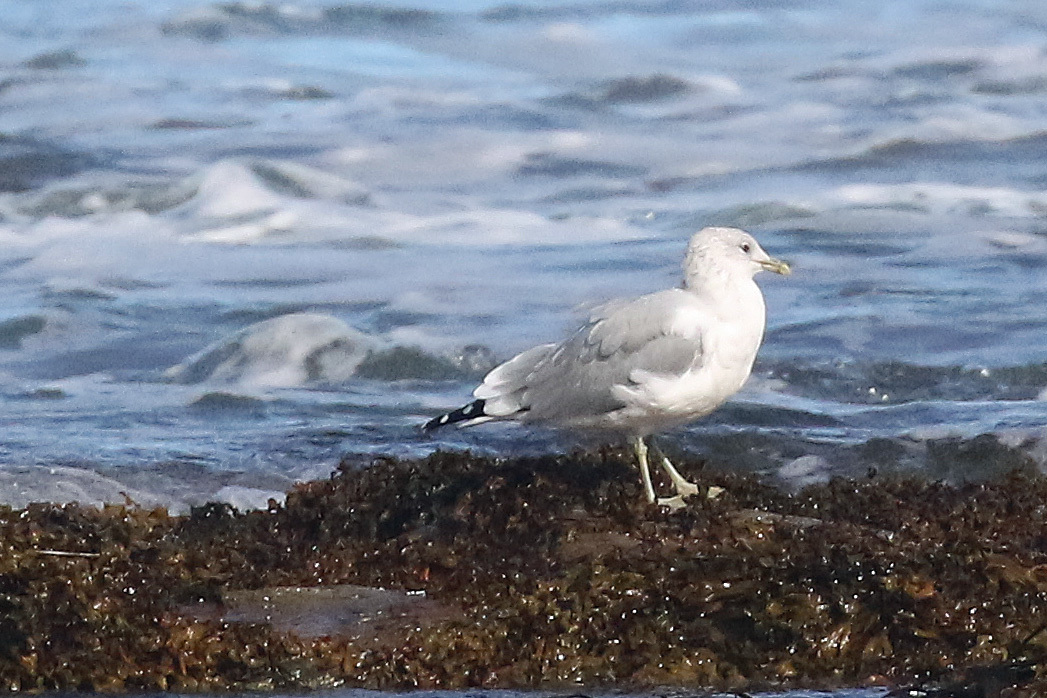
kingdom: Animalia
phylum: Chordata
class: Aves
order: Charadriiformes
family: Laridae
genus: Larus
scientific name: Larus canus
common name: Mew gull
